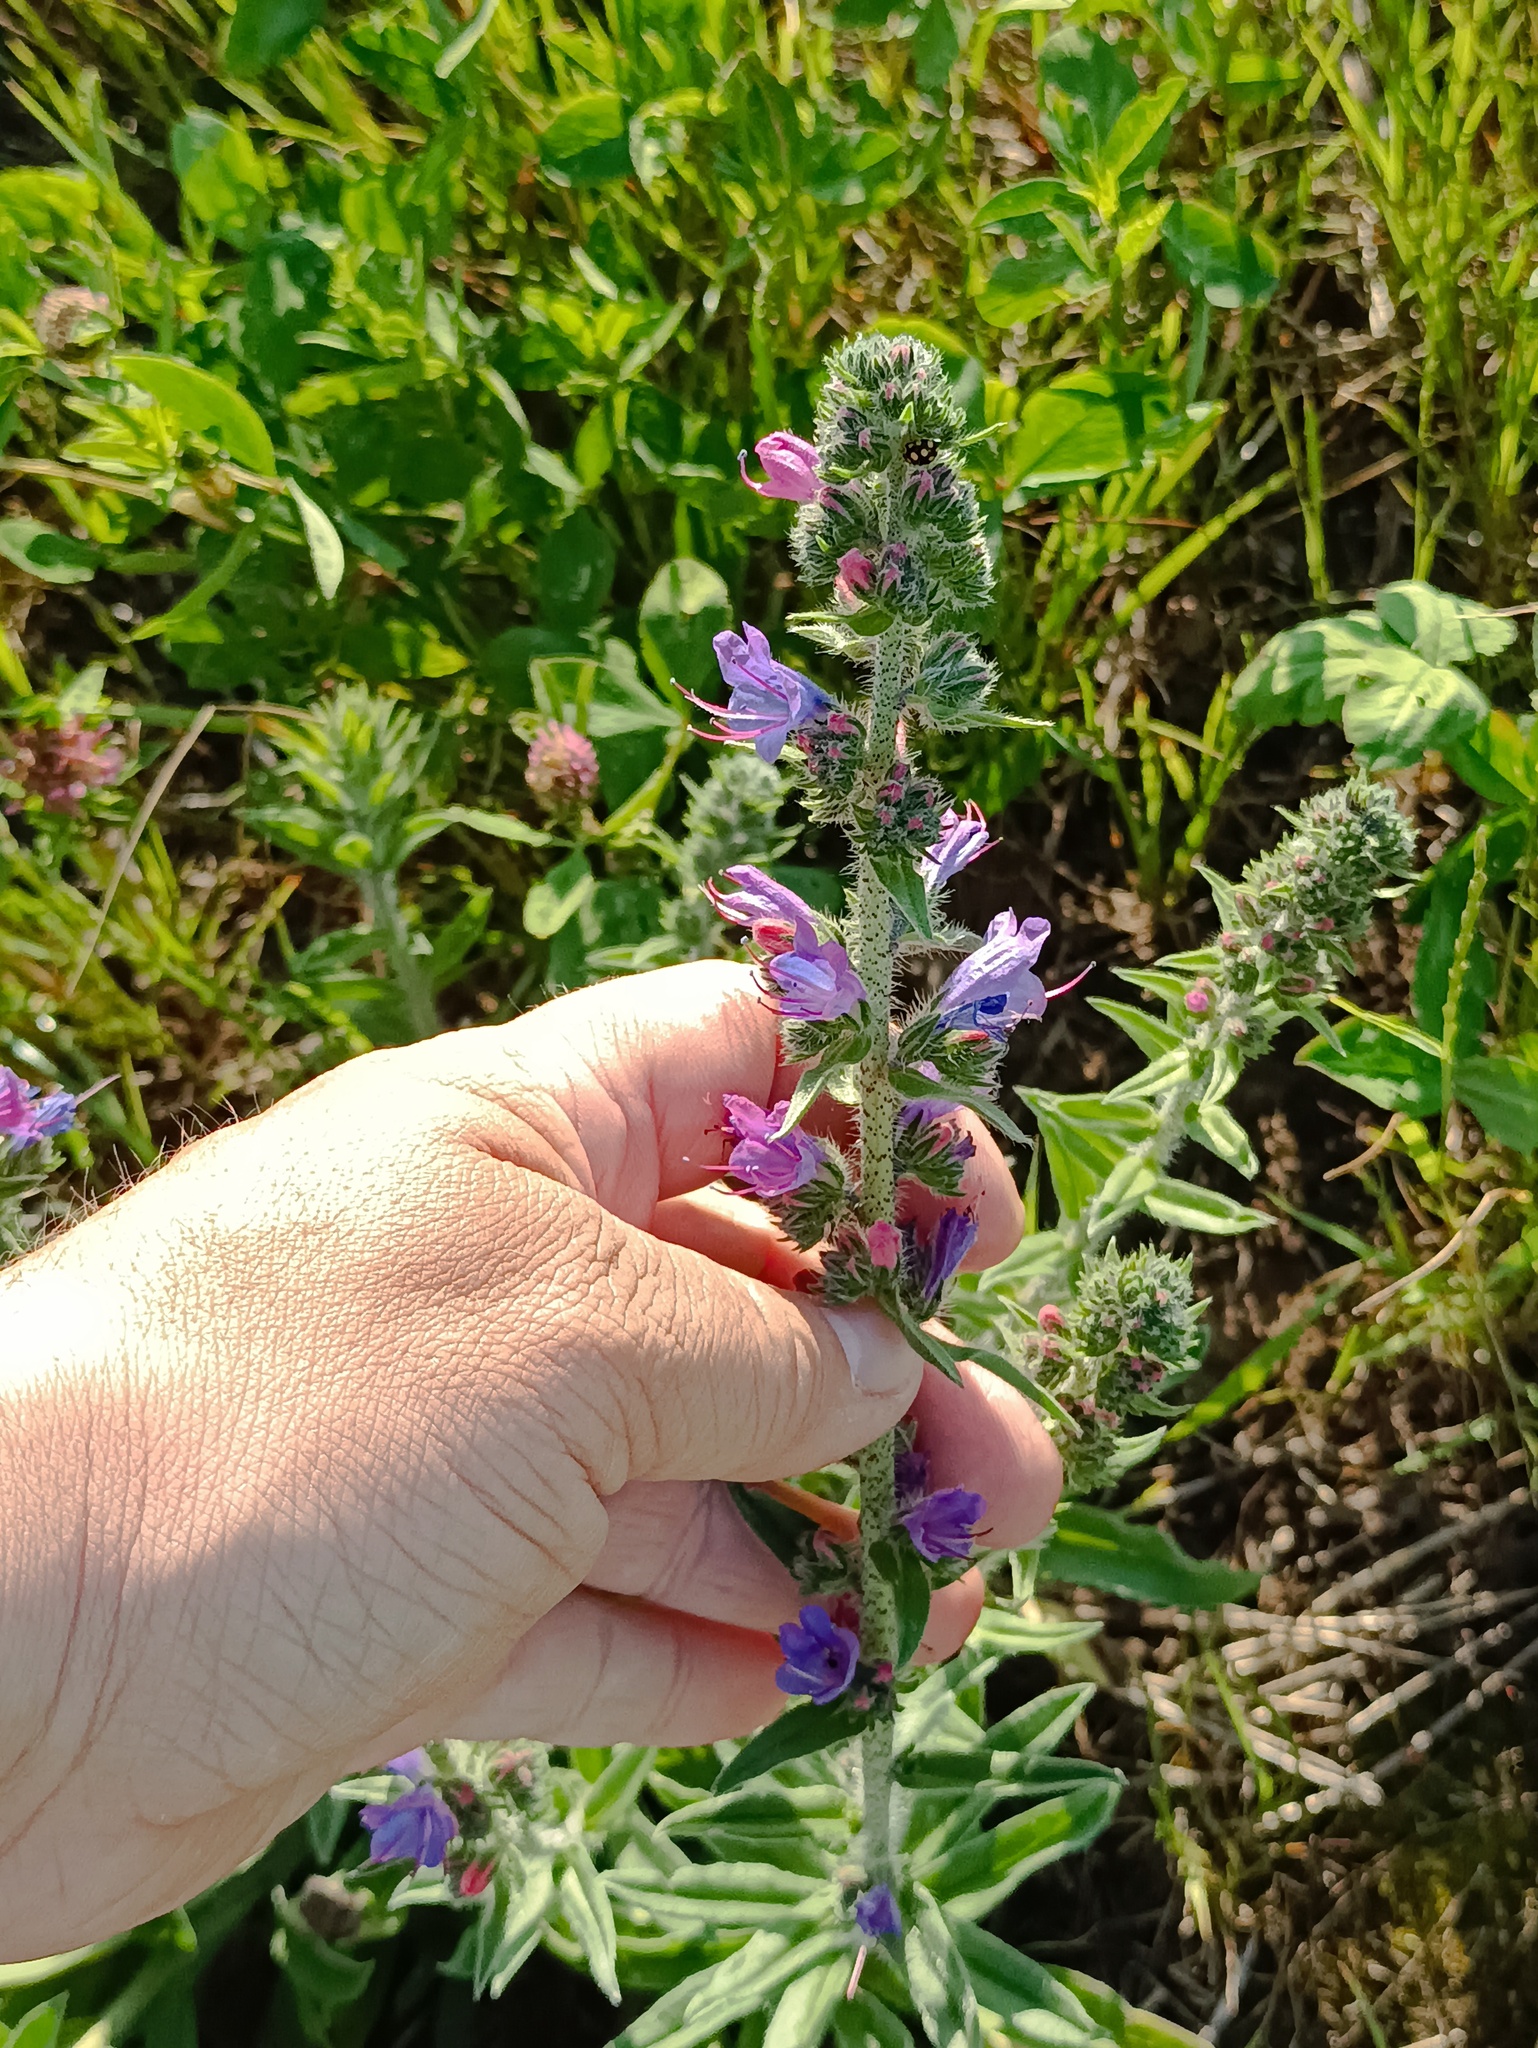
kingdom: Plantae
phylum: Tracheophyta
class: Magnoliopsida
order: Boraginales
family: Boraginaceae
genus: Echium
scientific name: Echium vulgare
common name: Common viper's bugloss
